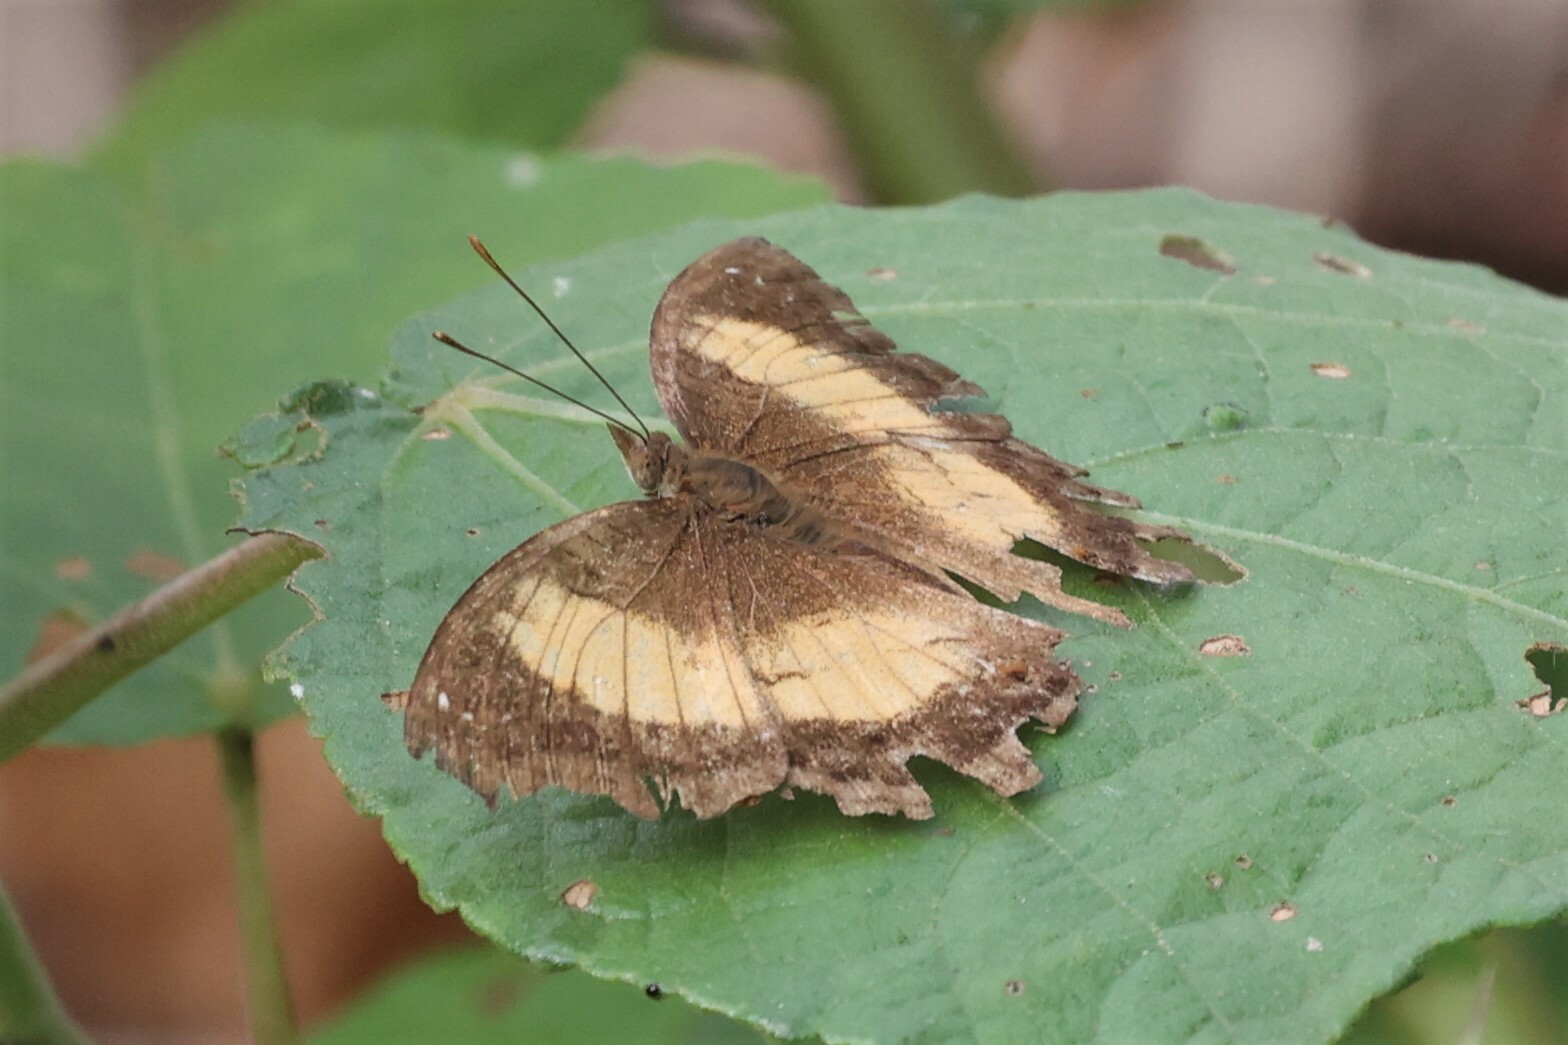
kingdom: Animalia
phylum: Arthropoda
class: Insecta
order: Lepidoptera
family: Nymphalidae
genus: Junonia
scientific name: Junonia terea
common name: Soldier pansy
